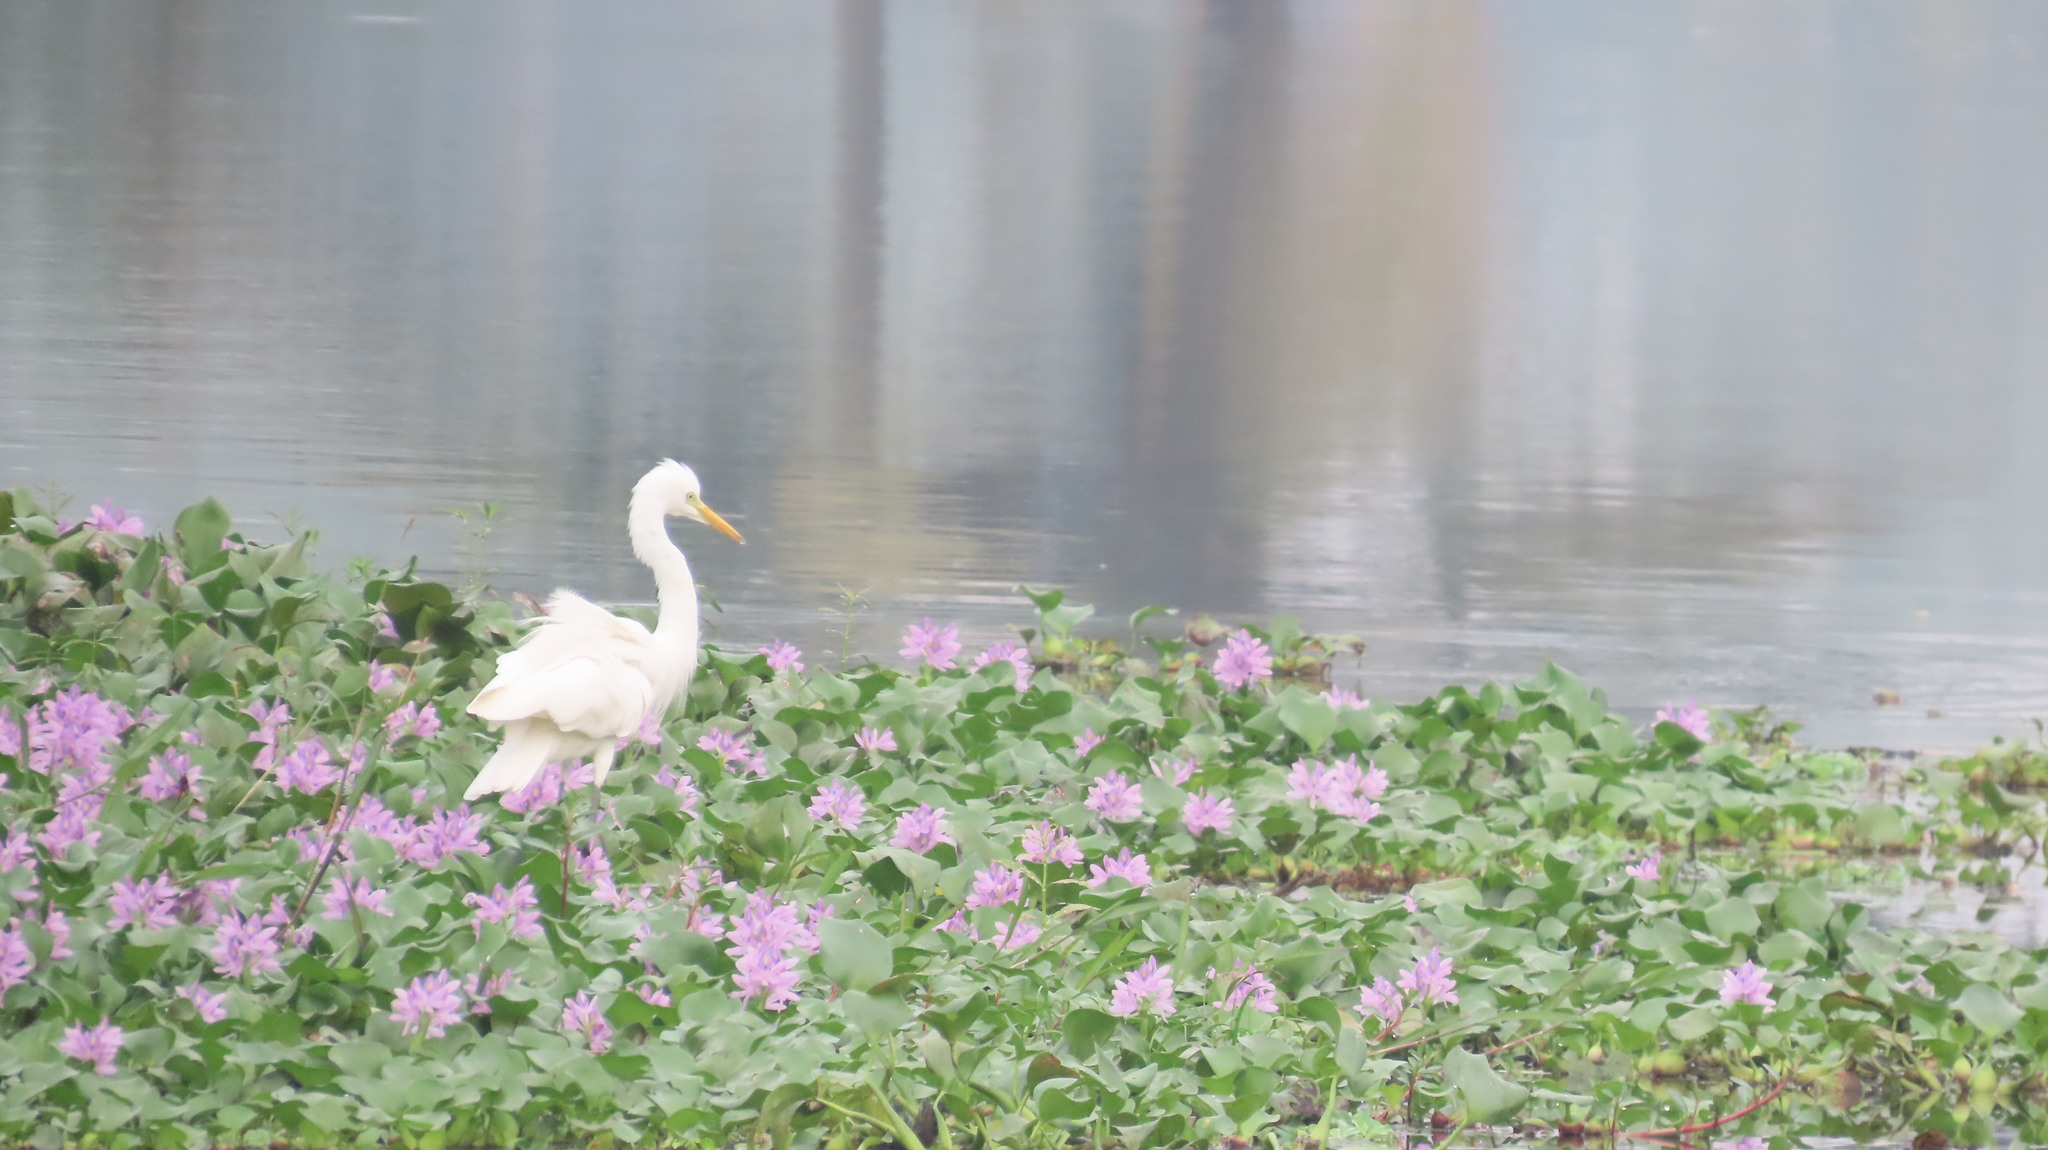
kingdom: Animalia
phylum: Chordata
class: Aves
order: Pelecaniformes
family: Ardeidae
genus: Egretta
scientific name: Egretta intermedia
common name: Intermediate egret
